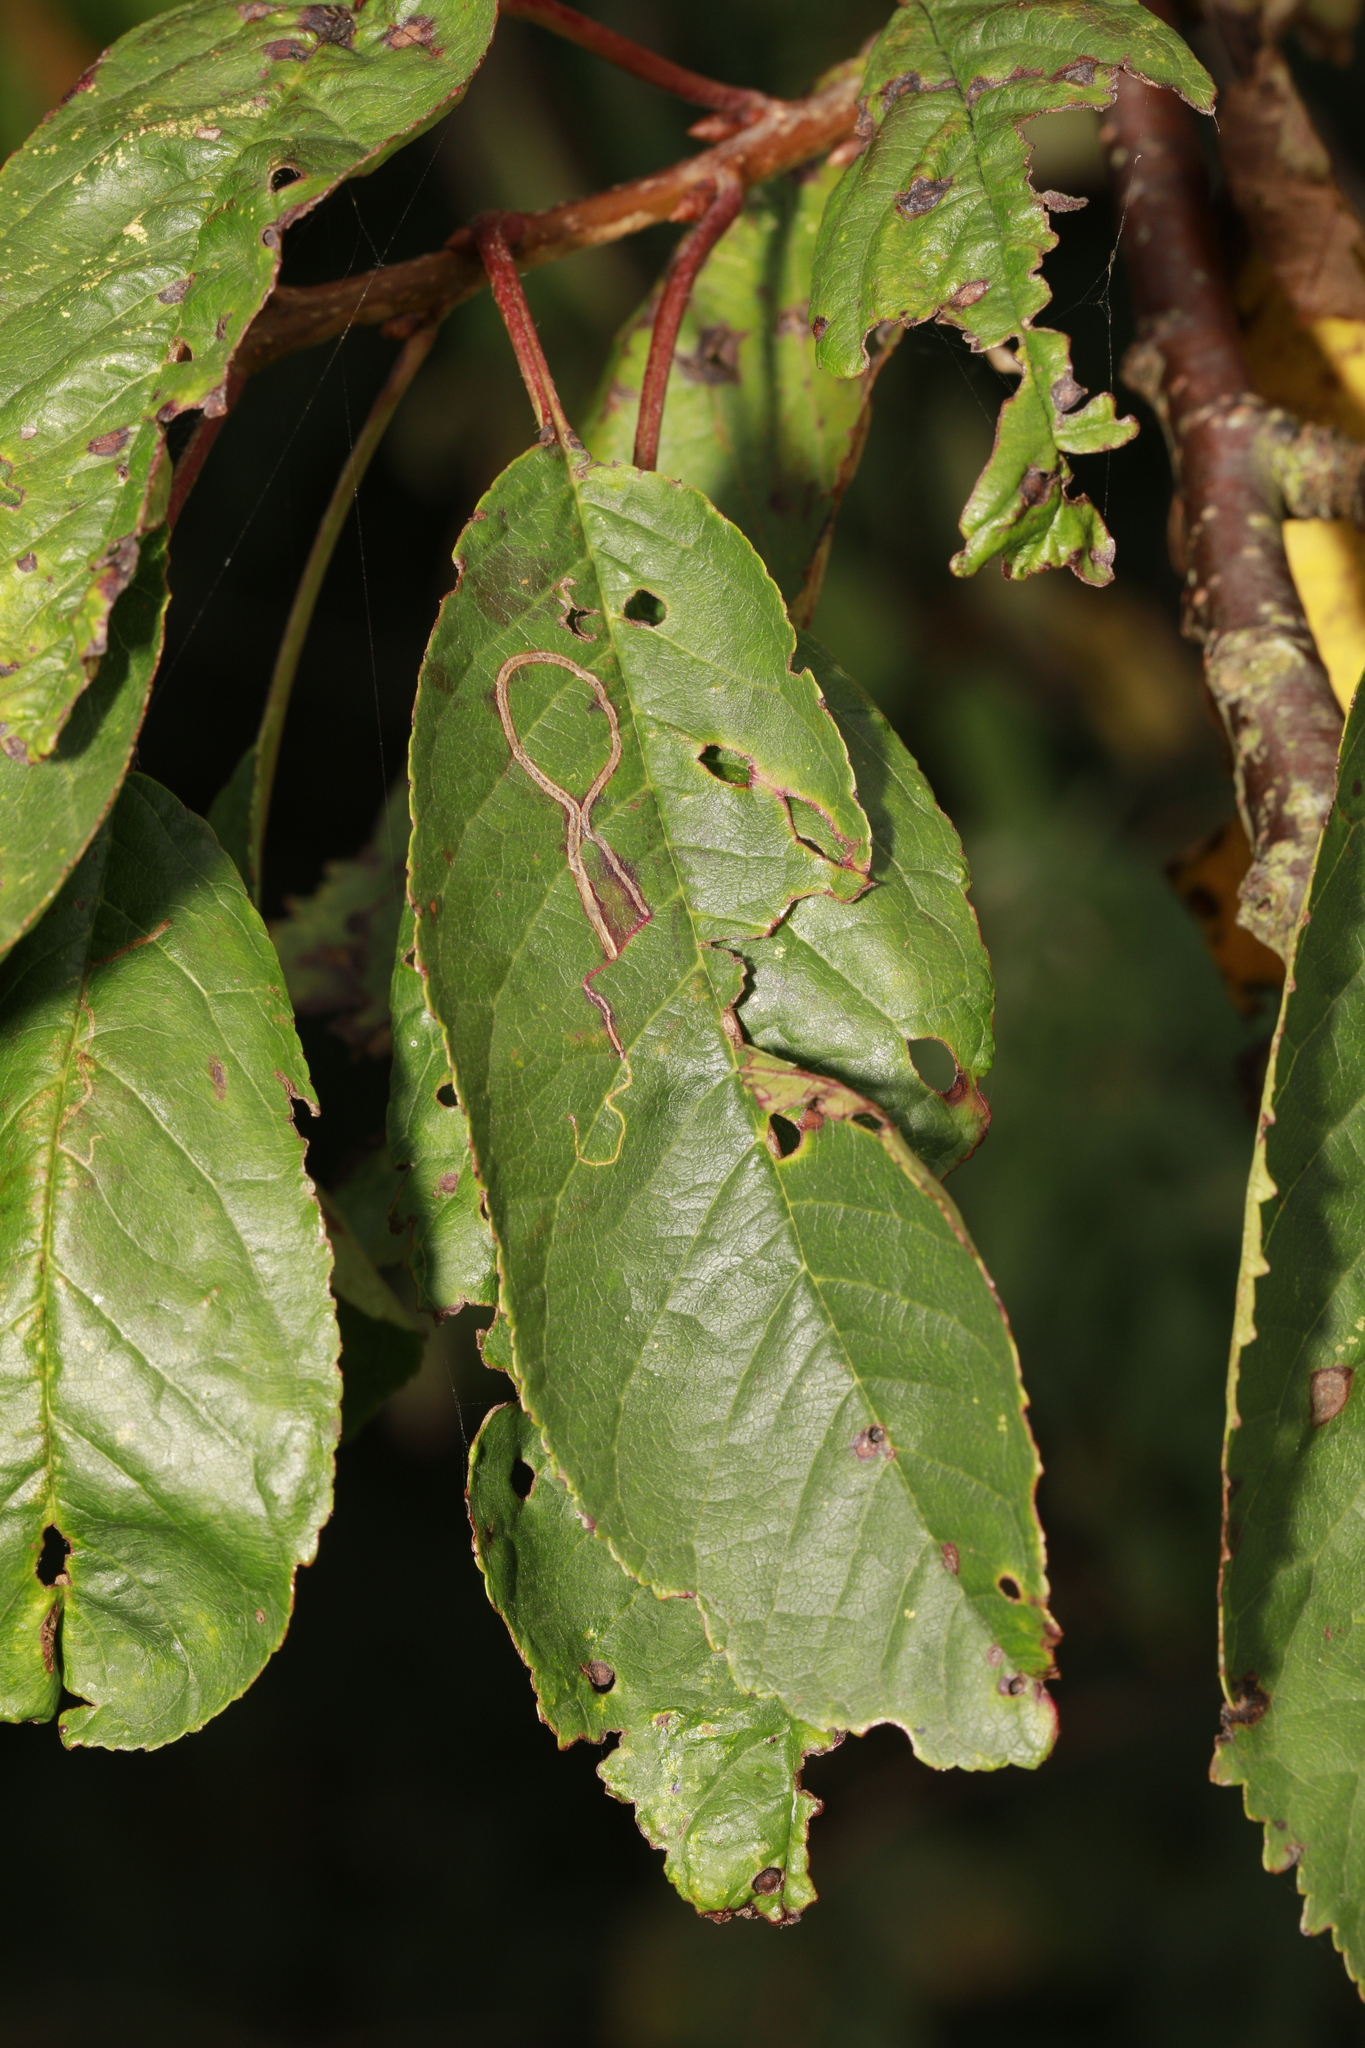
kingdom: Animalia
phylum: Arthropoda
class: Insecta
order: Lepidoptera
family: Lyonetiidae
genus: Lyonetia
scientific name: Lyonetia clerkella
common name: Apple leaf miner
